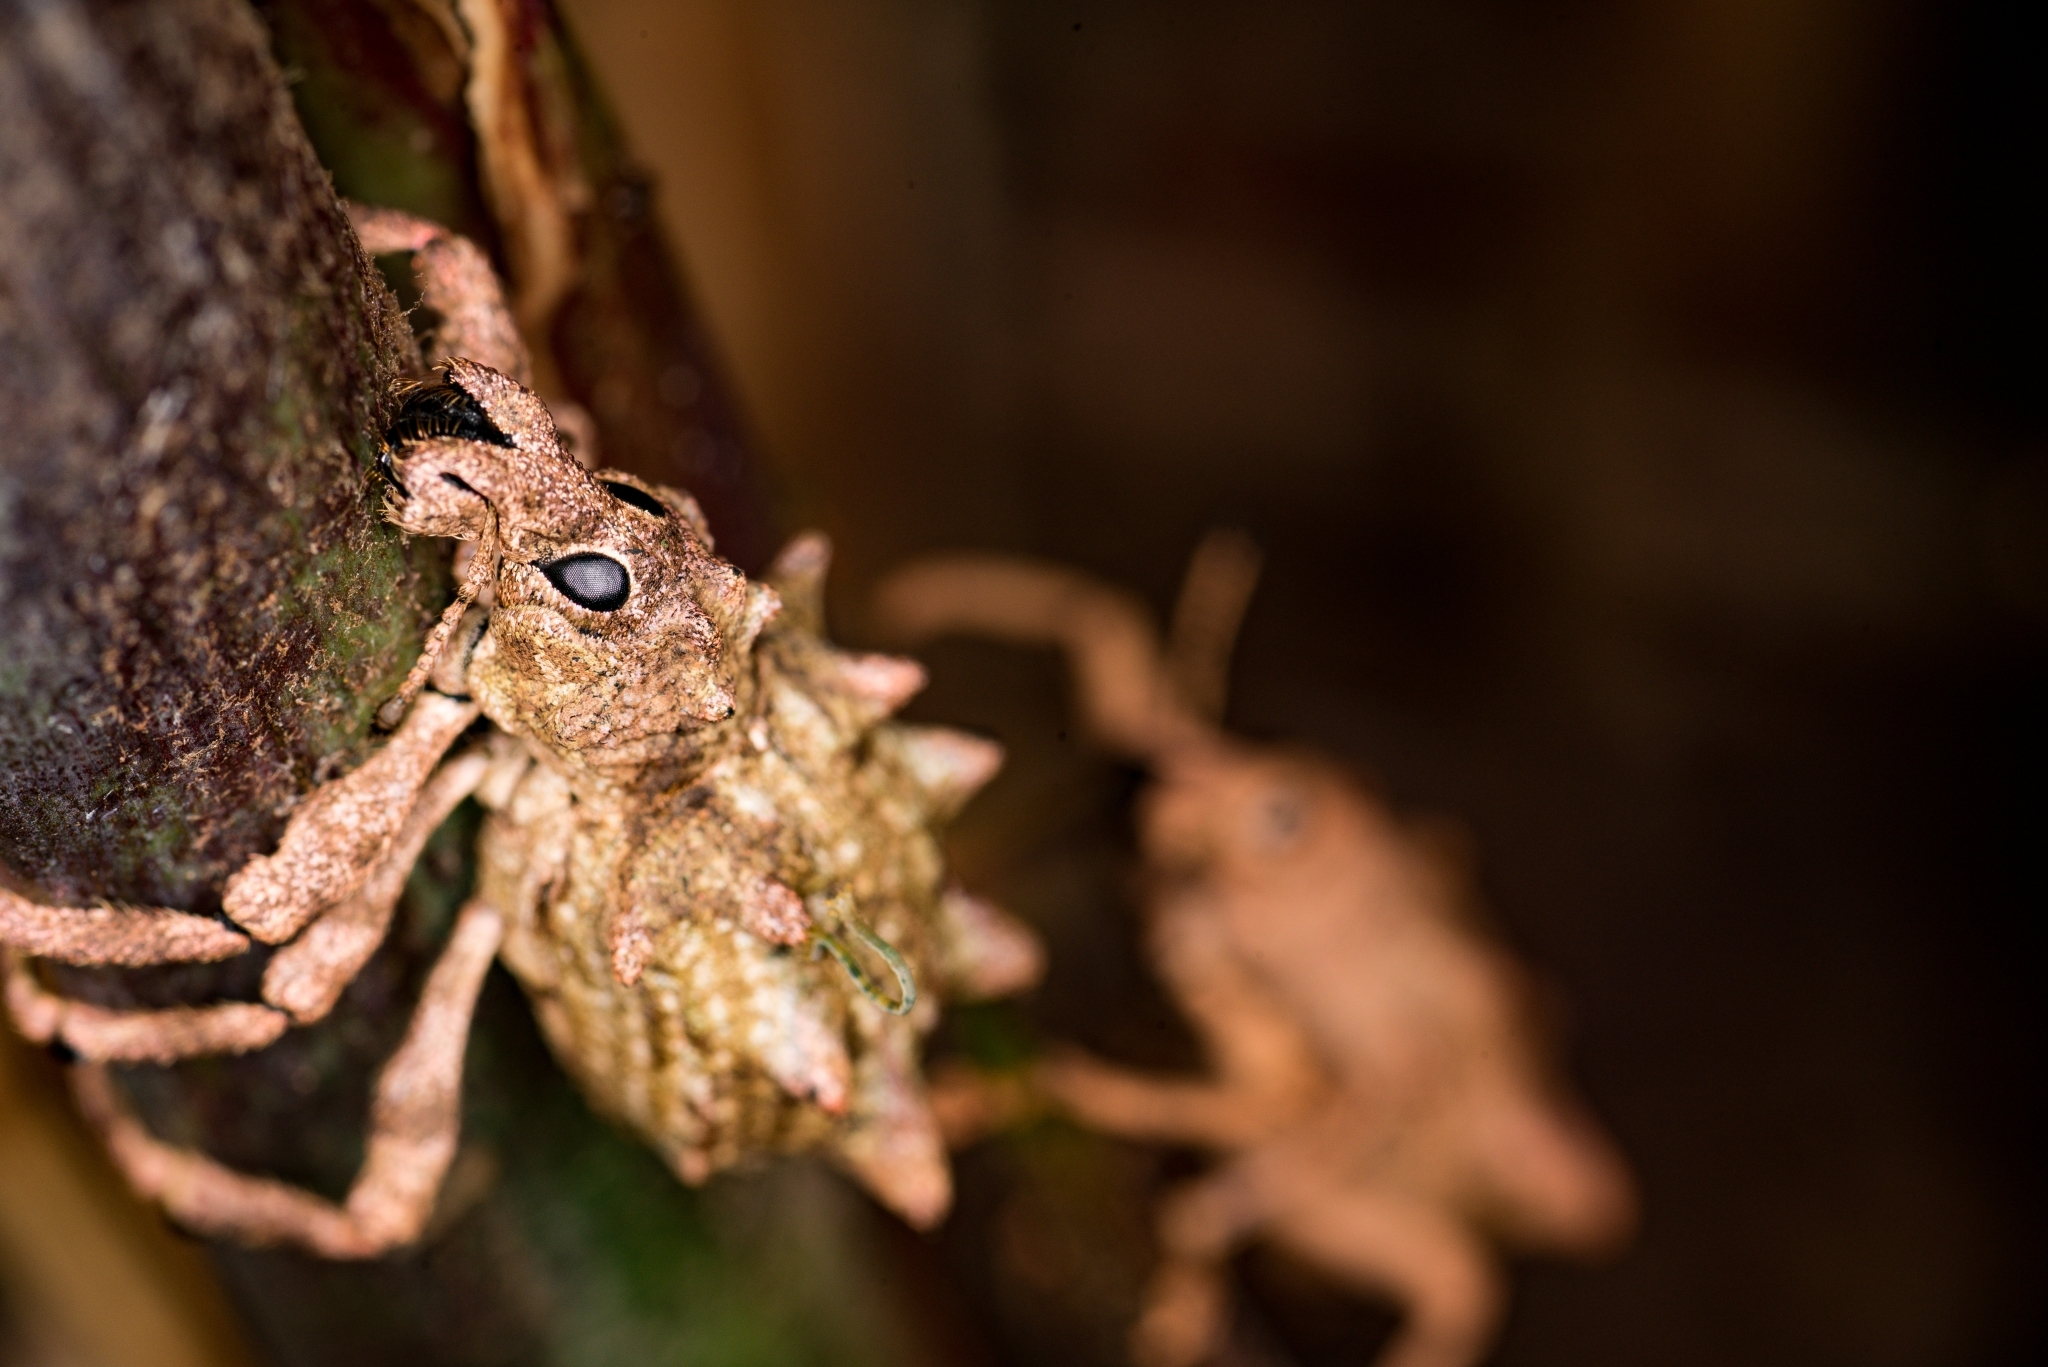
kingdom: Animalia
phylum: Arthropoda
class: Insecta
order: Coleoptera
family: Curculionidae
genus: Rhigus
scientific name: Rhigus schueppelii
